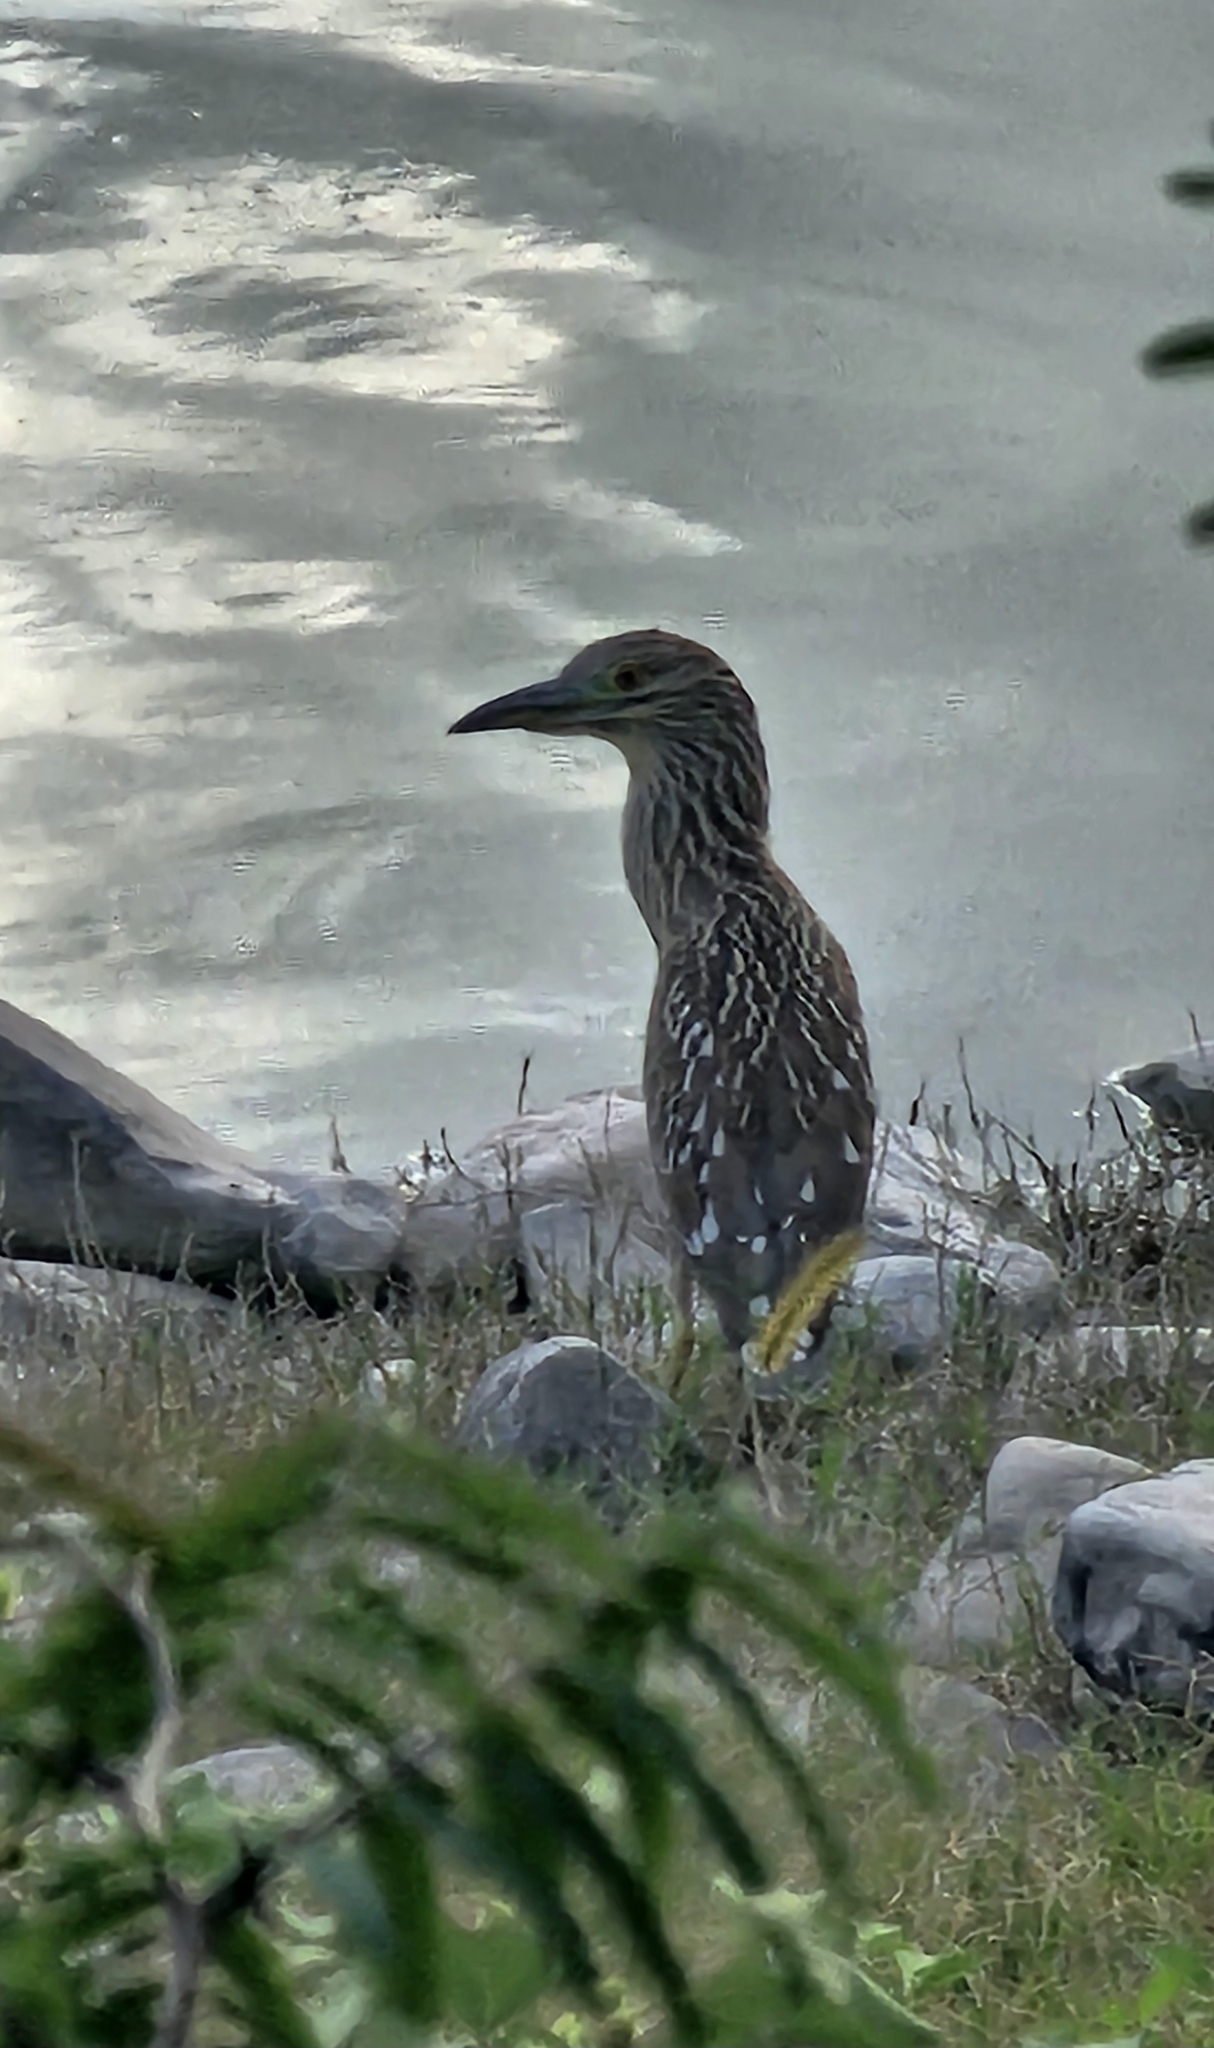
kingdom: Animalia
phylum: Chordata
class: Aves
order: Pelecaniformes
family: Ardeidae
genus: Nycticorax
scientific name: Nycticorax nycticorax
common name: Black-crowned night heron
